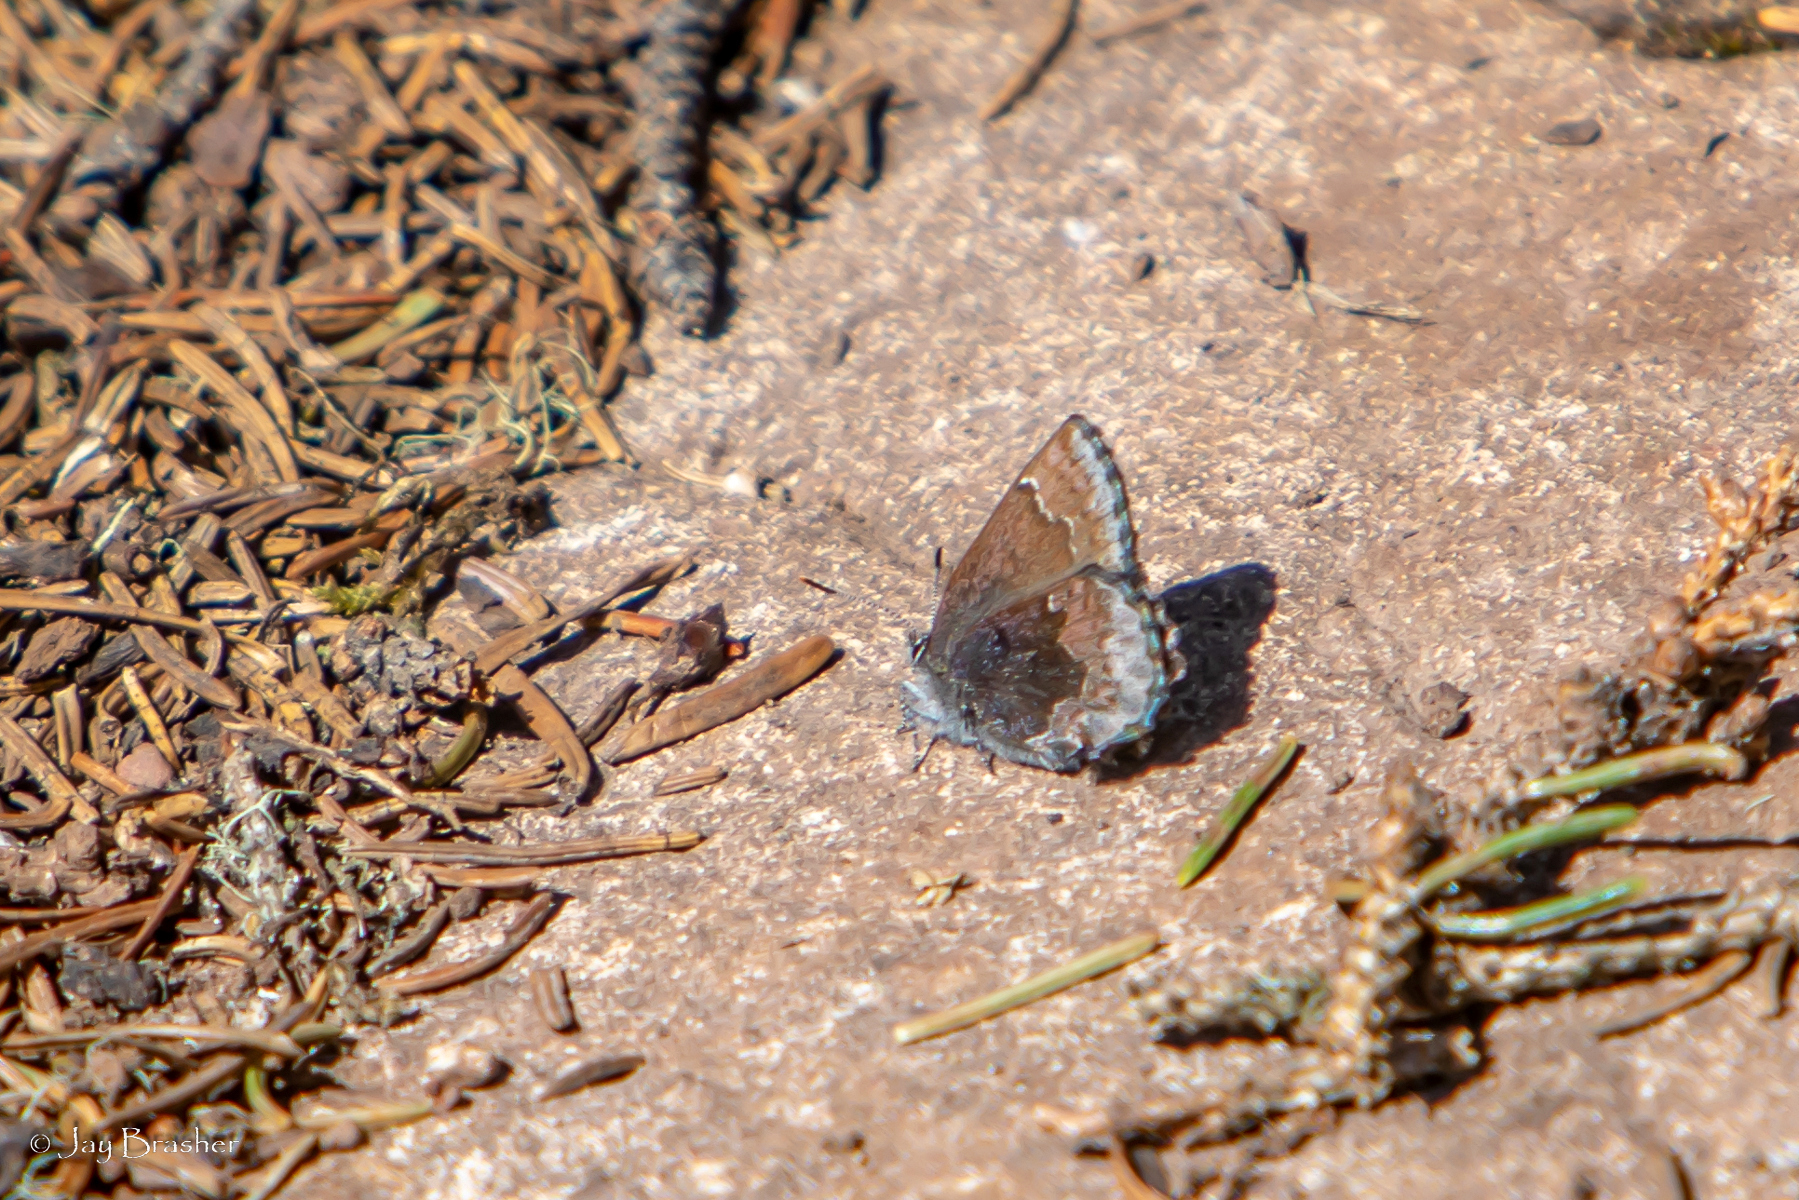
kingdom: Animalia
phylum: Arthropoda
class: Insecta
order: Lepidoptera
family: Lycaenidae
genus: Callophrys
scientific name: Callophrys polios
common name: Hoary elfin
